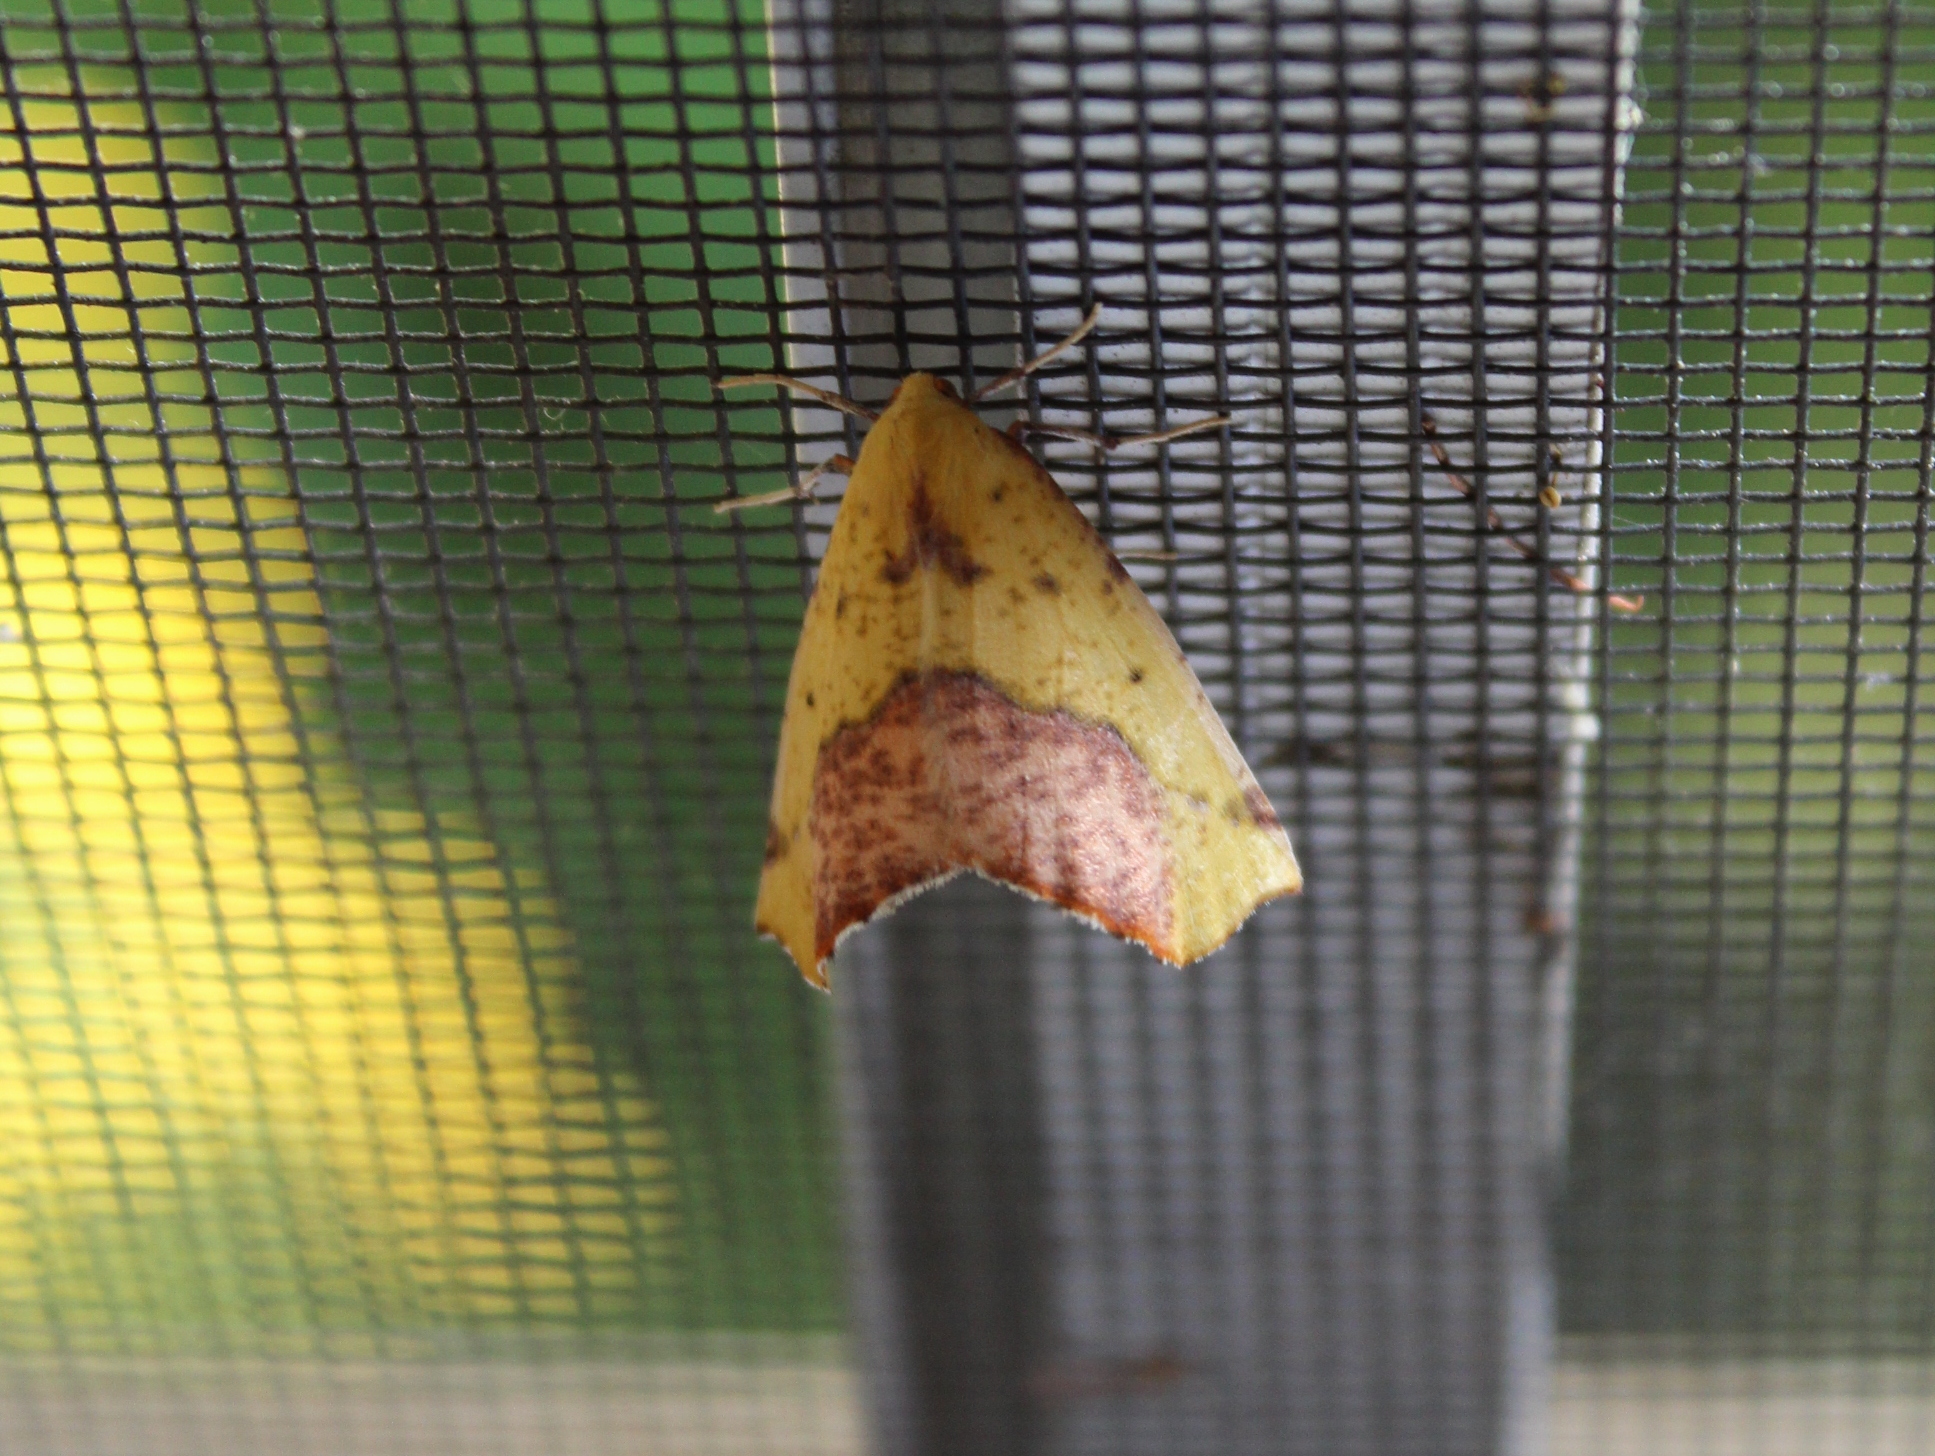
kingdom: Animalia
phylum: Arthropoda
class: Insecta
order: Lepidoptera
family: Geometridae
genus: Sicya
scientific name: Sicya macularia
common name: Sharp-lined yellow
